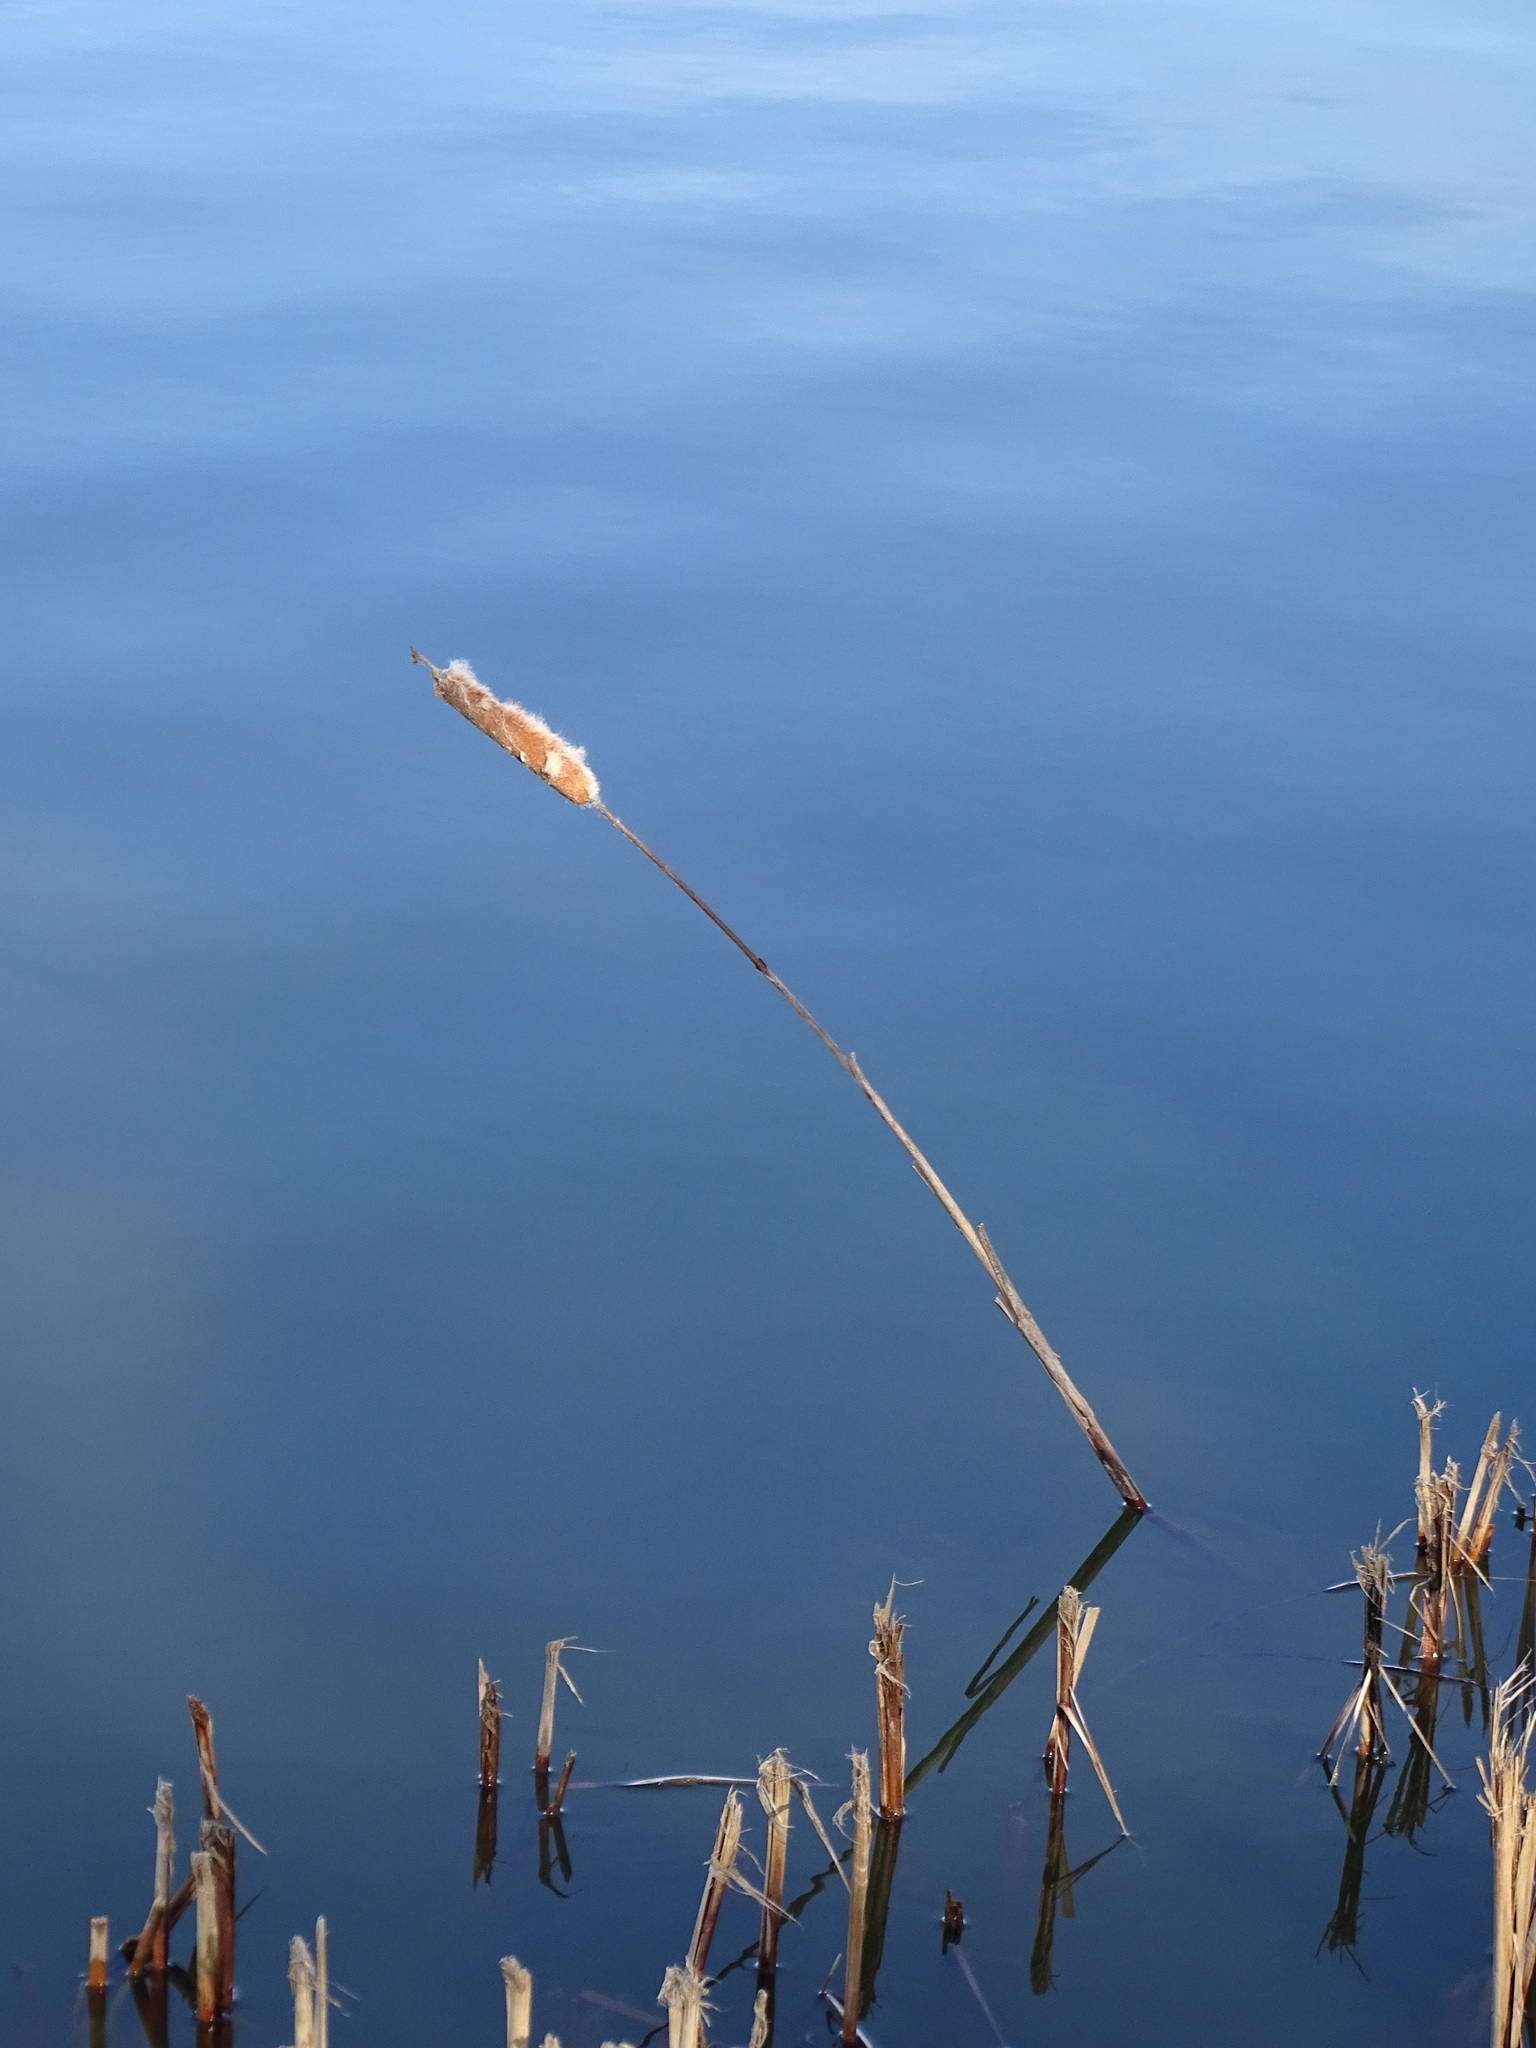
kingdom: Plantae
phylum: Tracheophyta
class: Liliopsida
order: Poales
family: Typhaceae
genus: Typha
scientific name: Typha latifolia
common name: Broadleaf cattail
